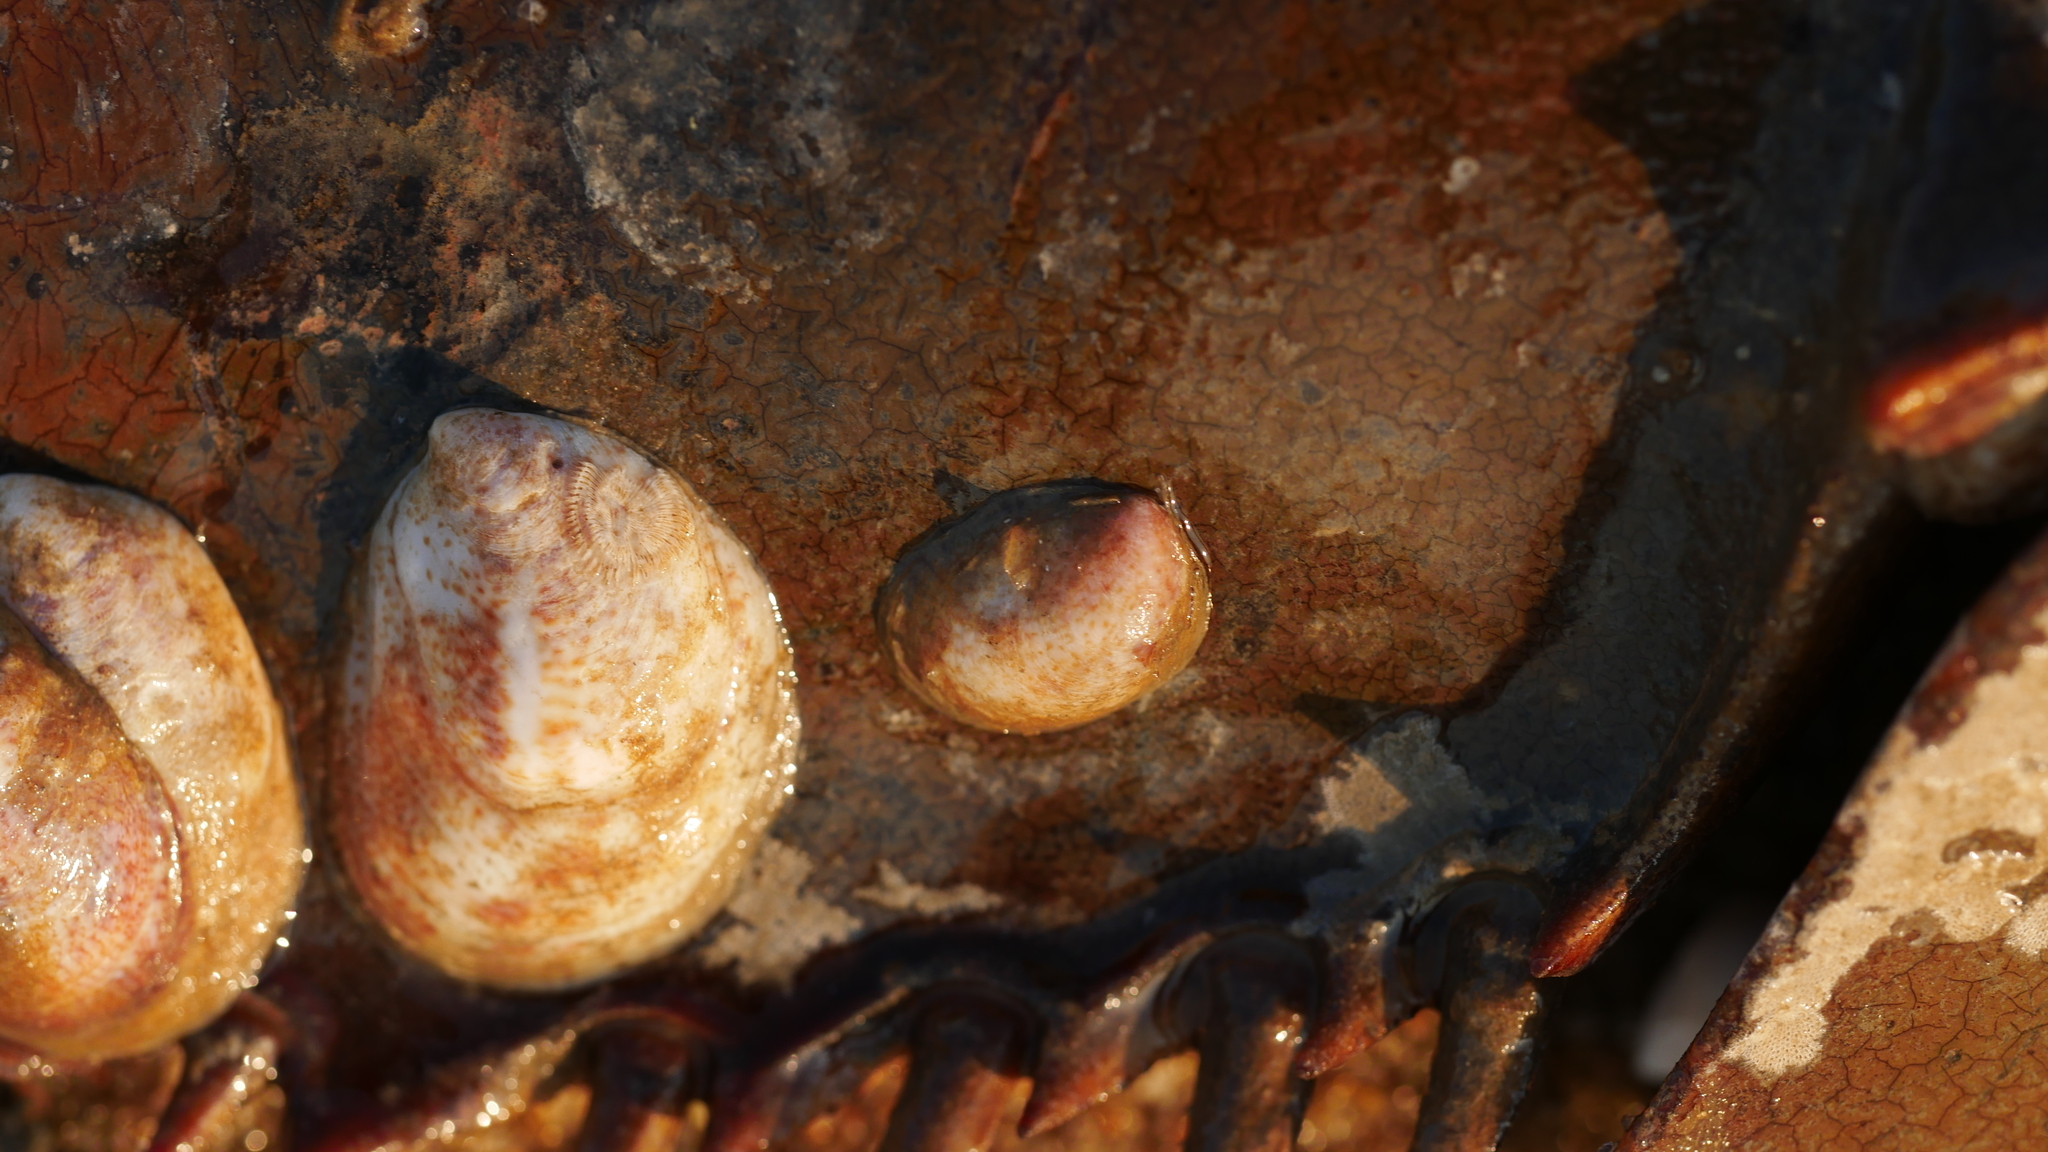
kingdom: Animalia
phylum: Mollusca
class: Gastropoda
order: Littorinimorpha
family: Calyptraeidae
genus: Crepidula
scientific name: Crepidula fornicata
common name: Slipper limpet
